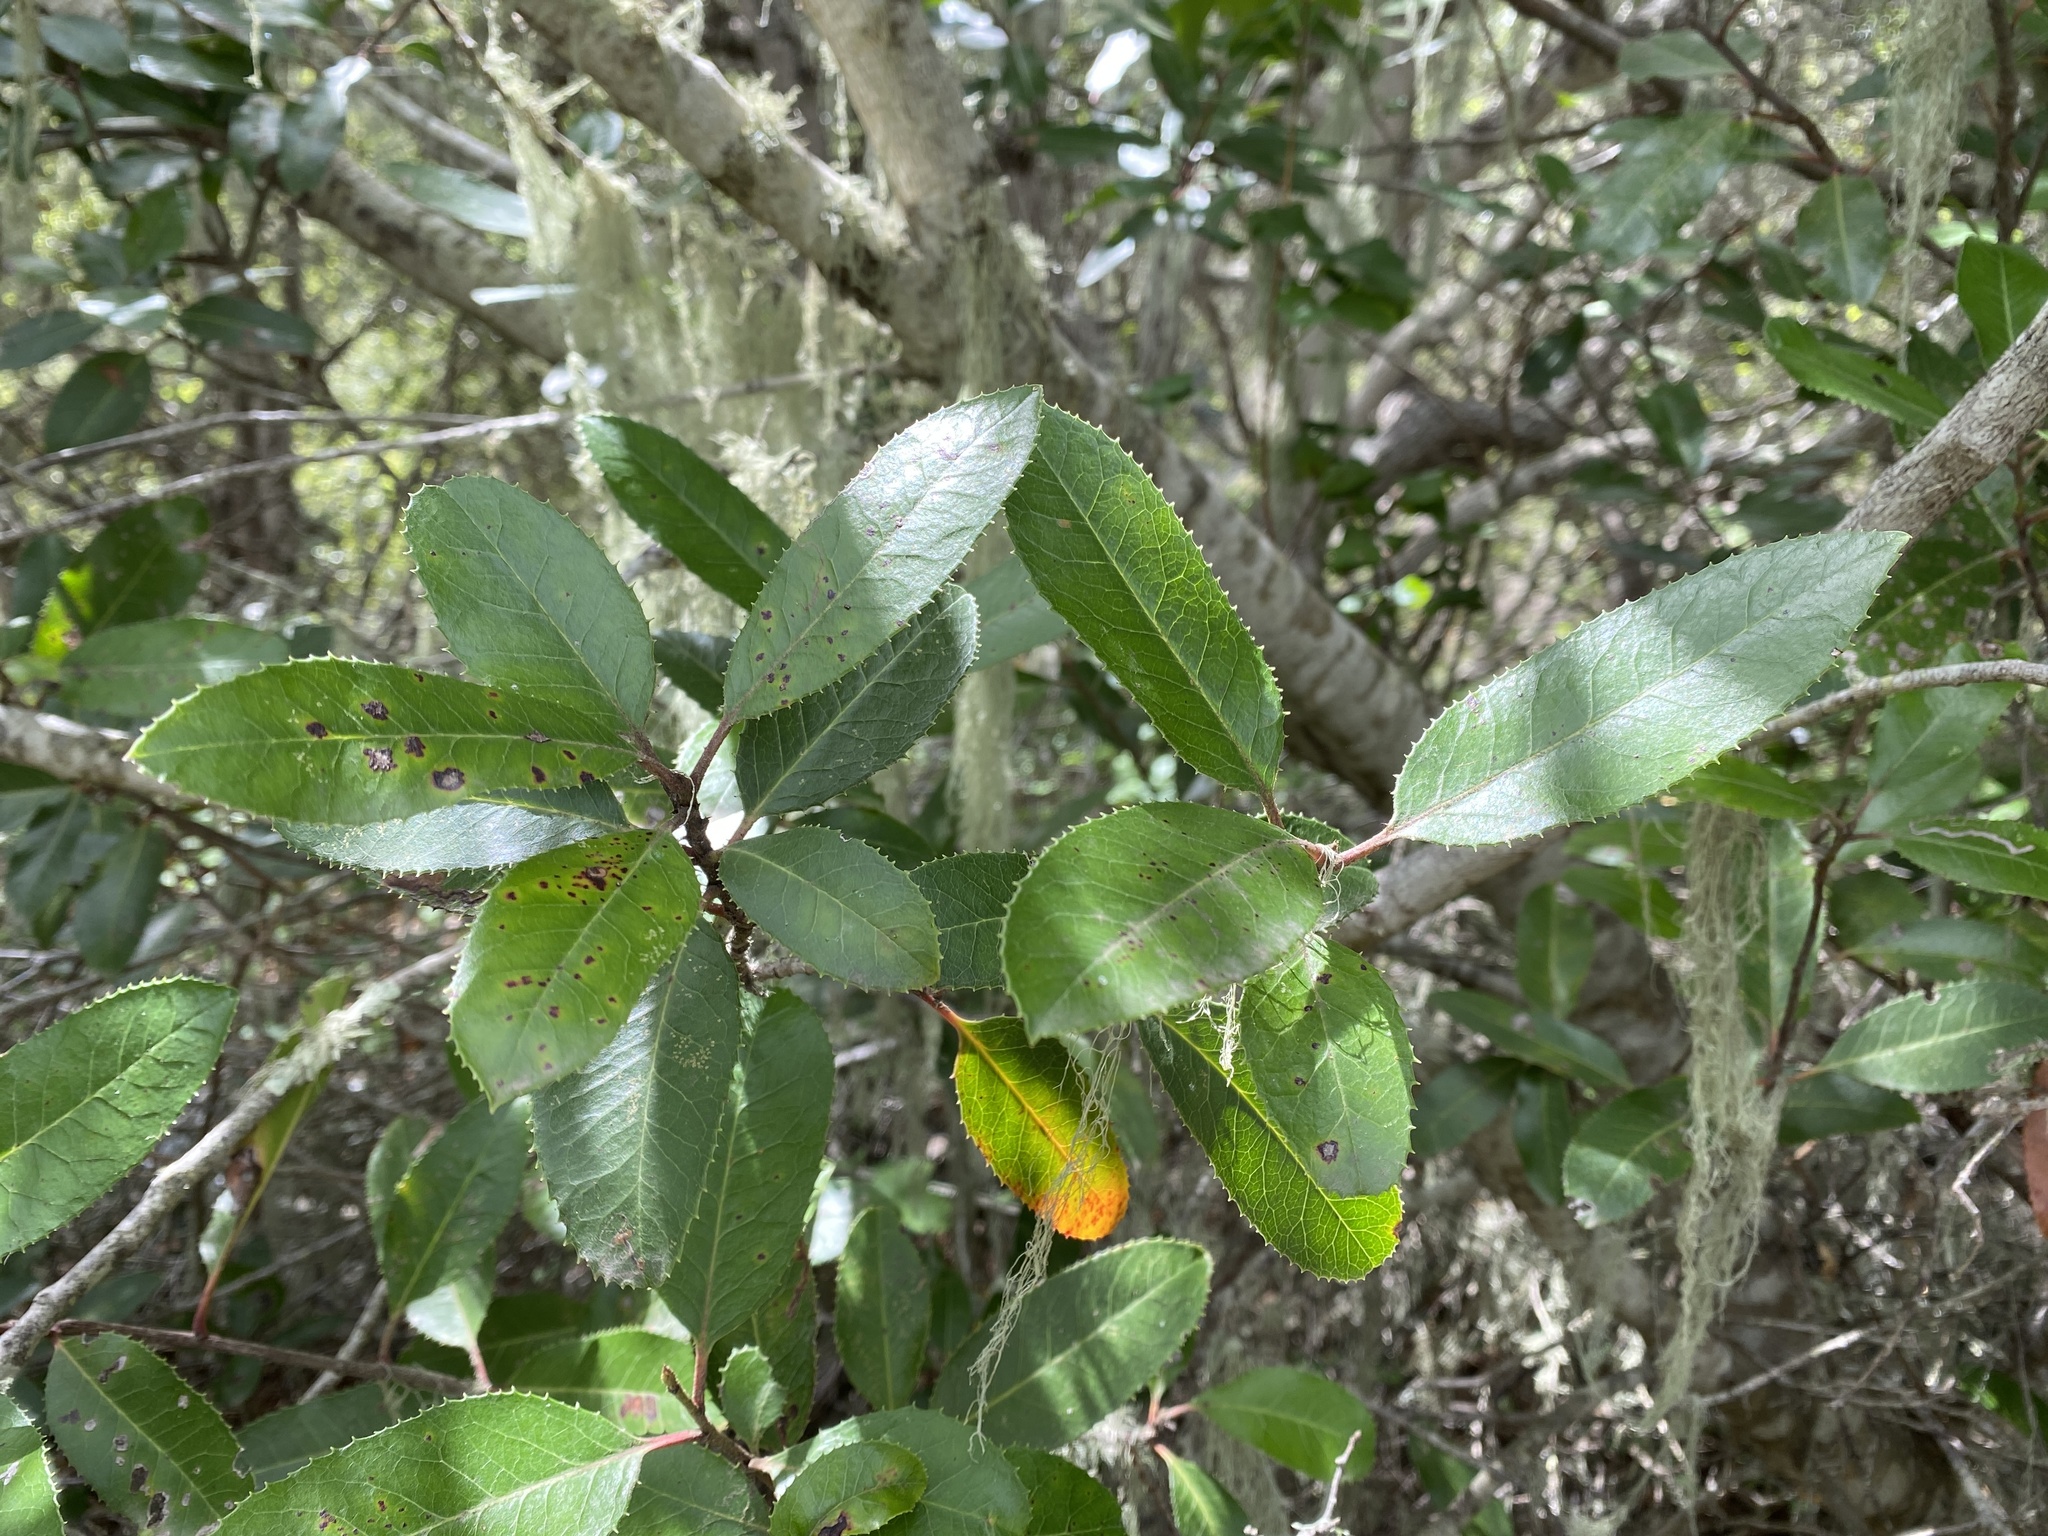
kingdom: Plantae
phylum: Tracheophyta
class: Magnoliopsida
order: Rosales
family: Rosaceae
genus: Heteromeles
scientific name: Heteromeles arbutifolia
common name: California-holly
